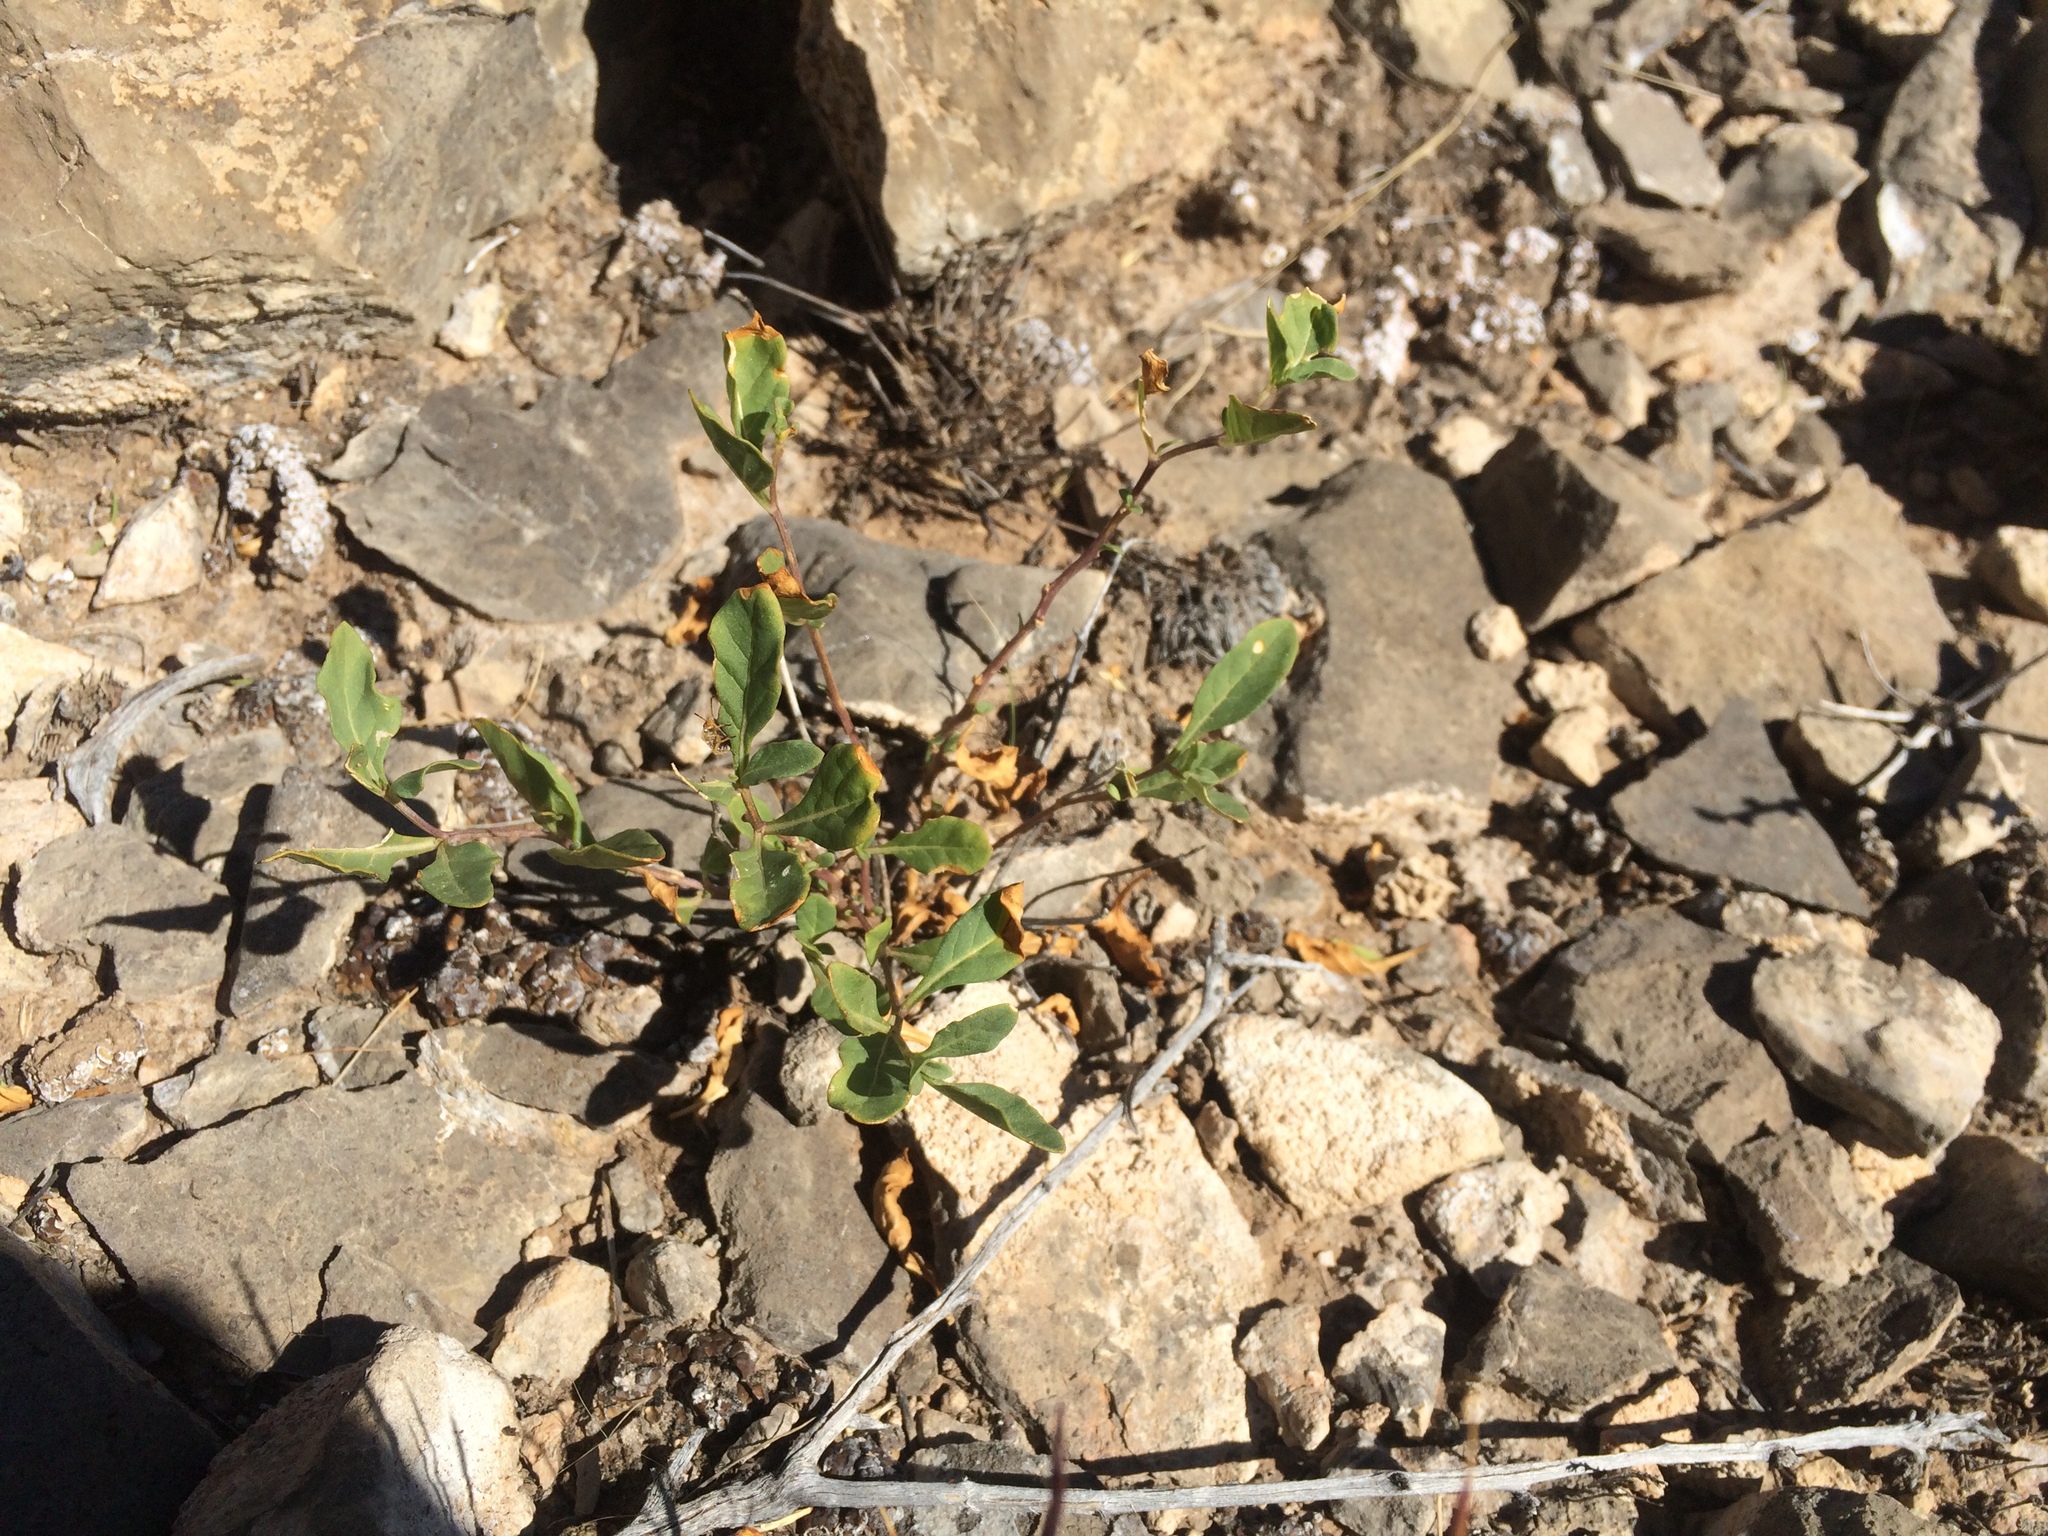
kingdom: Plantae
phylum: Tracheophyta
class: Magnoliopsida
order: Solanales
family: Solanaceae
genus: Chamaesaracha
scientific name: Chamaesaracha pallida
